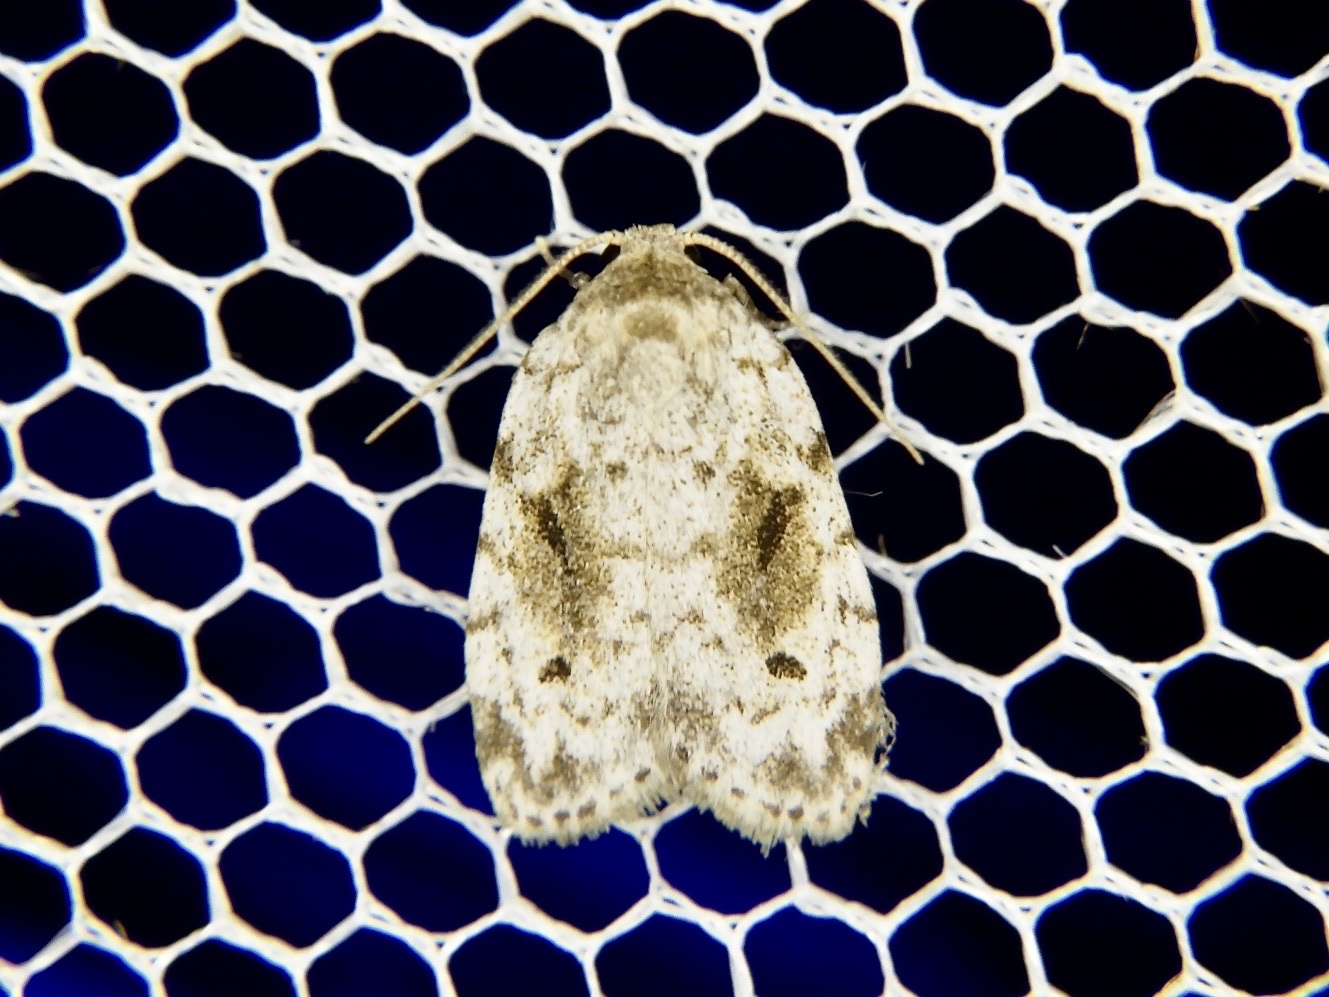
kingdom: Animalia
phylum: Arthropoda
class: Insecta
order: Lepidoptera
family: Erebidae
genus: Siccia
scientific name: Siccia obscura
